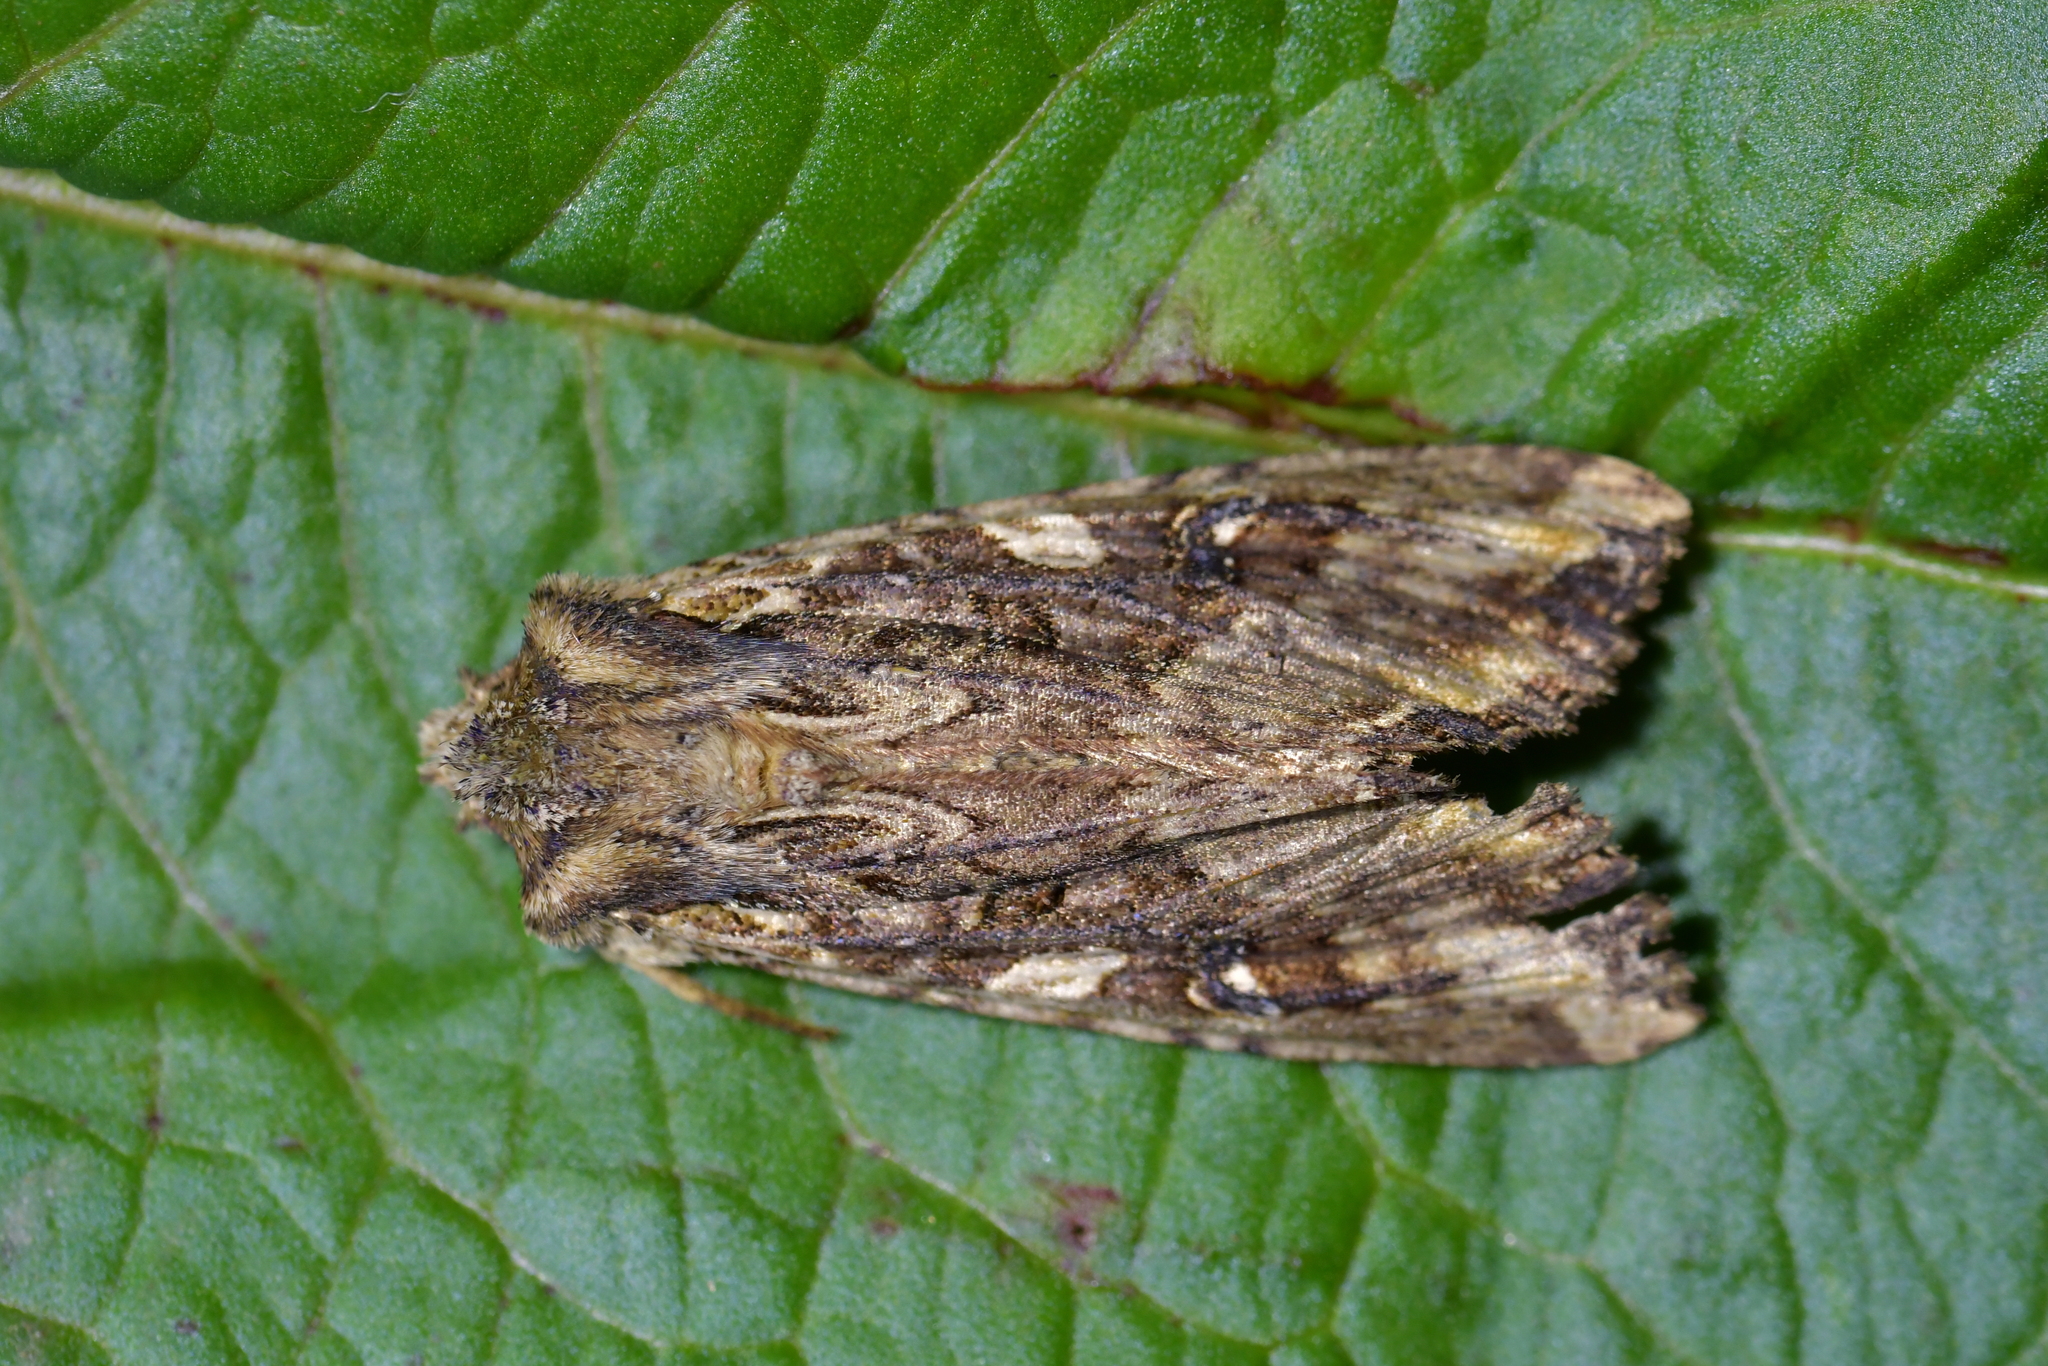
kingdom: Animalia
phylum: Arthropoda
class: Insecta
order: Lepidoptera
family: Noctuidae
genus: Meterana
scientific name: Meterana stipata
